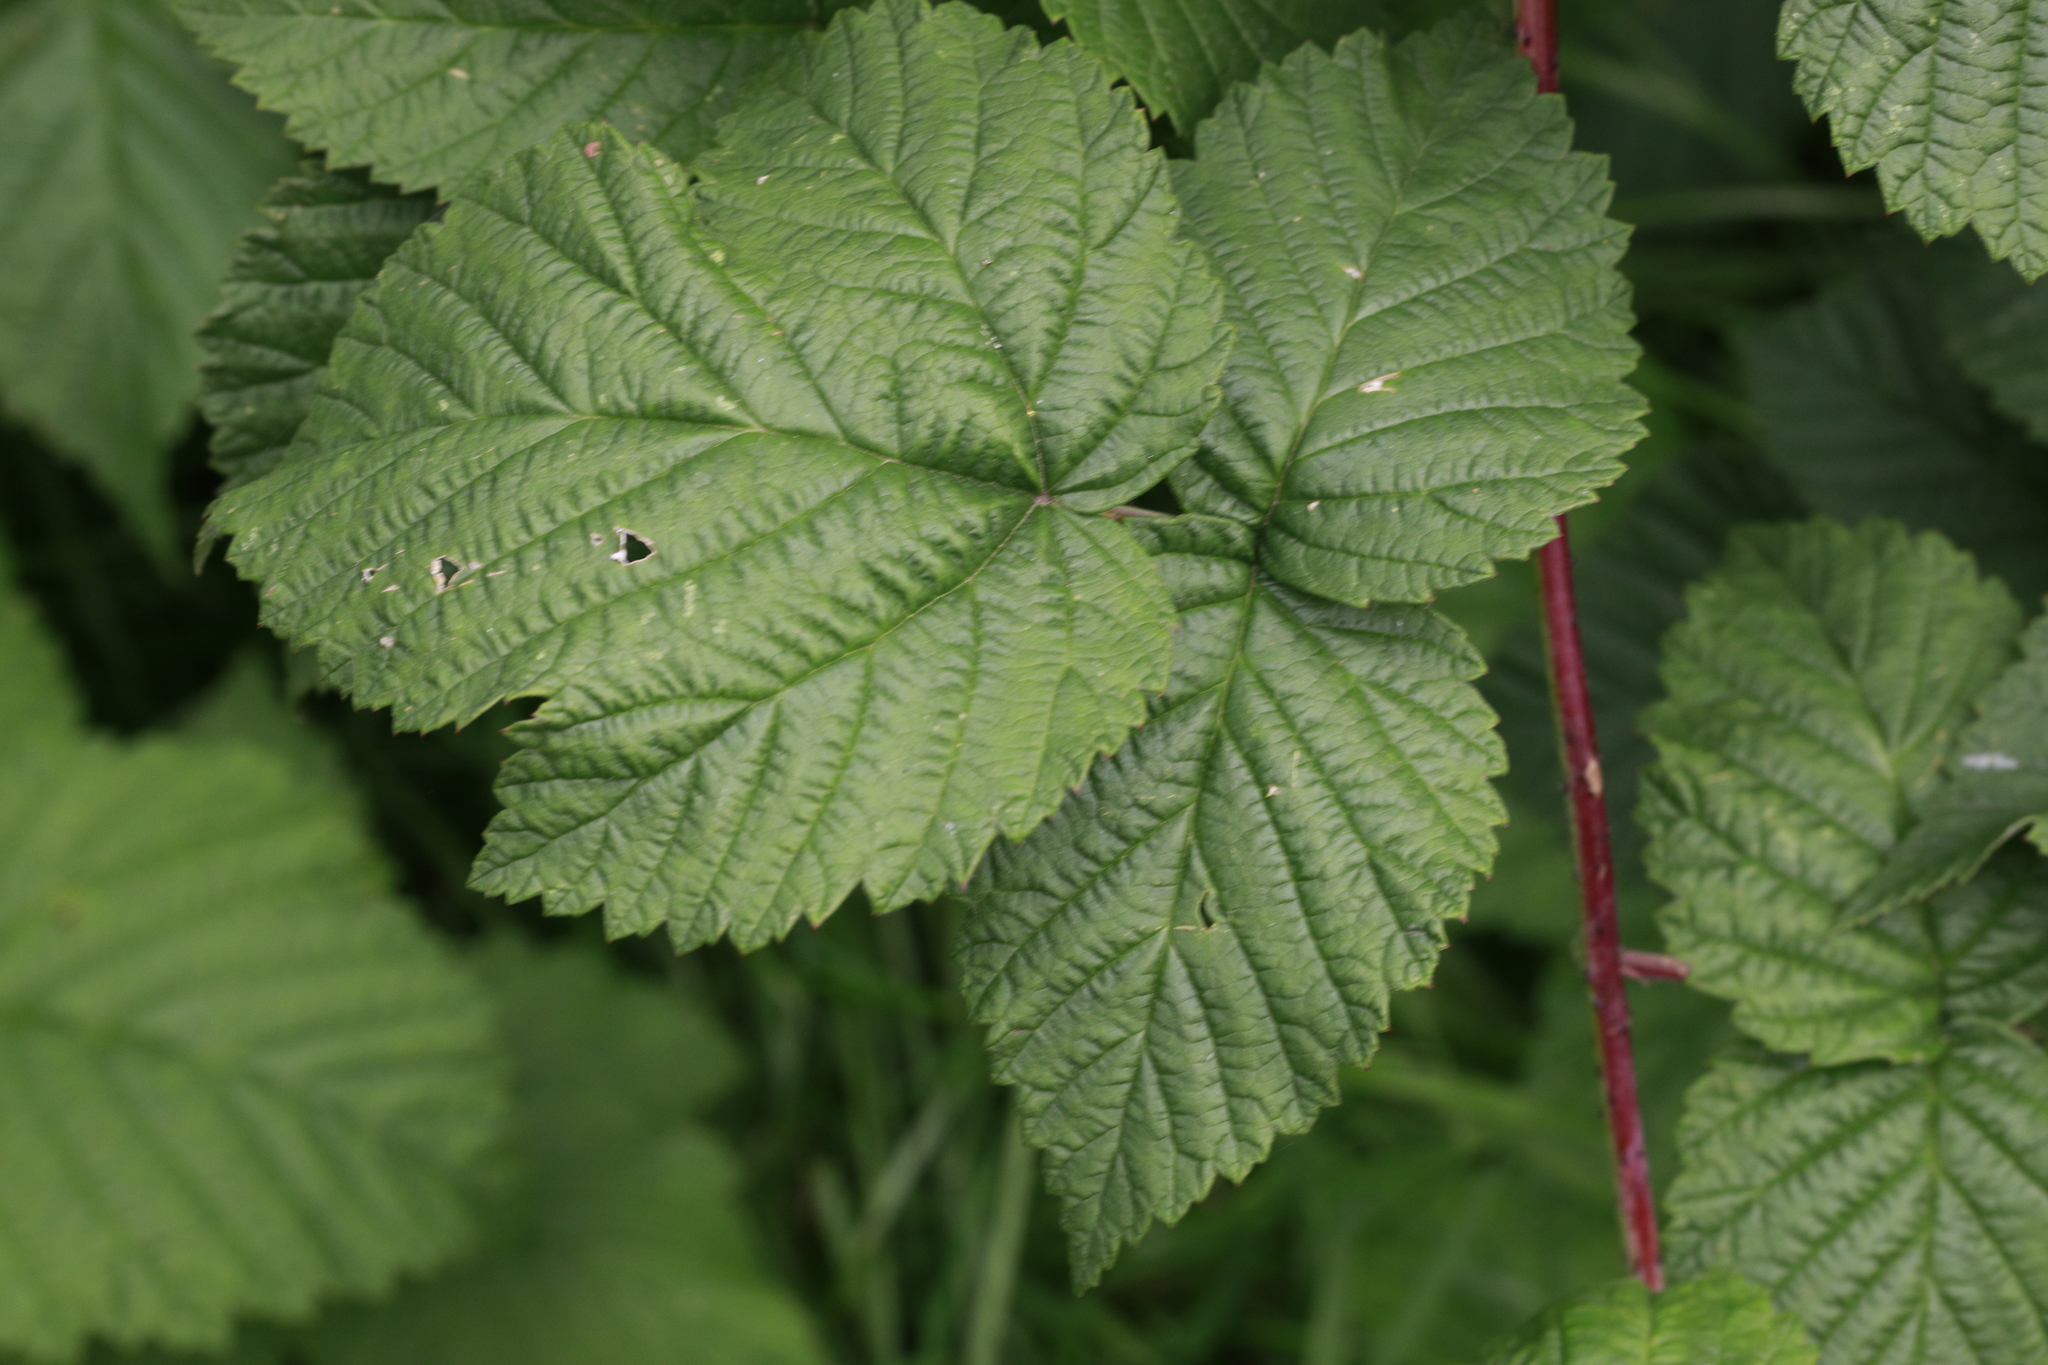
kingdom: Plantae
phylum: Tracheophyta
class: Magnoliopsida
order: Rosales
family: Rosaceae
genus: Rubus
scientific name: Rubus idaeus
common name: Raspberry
